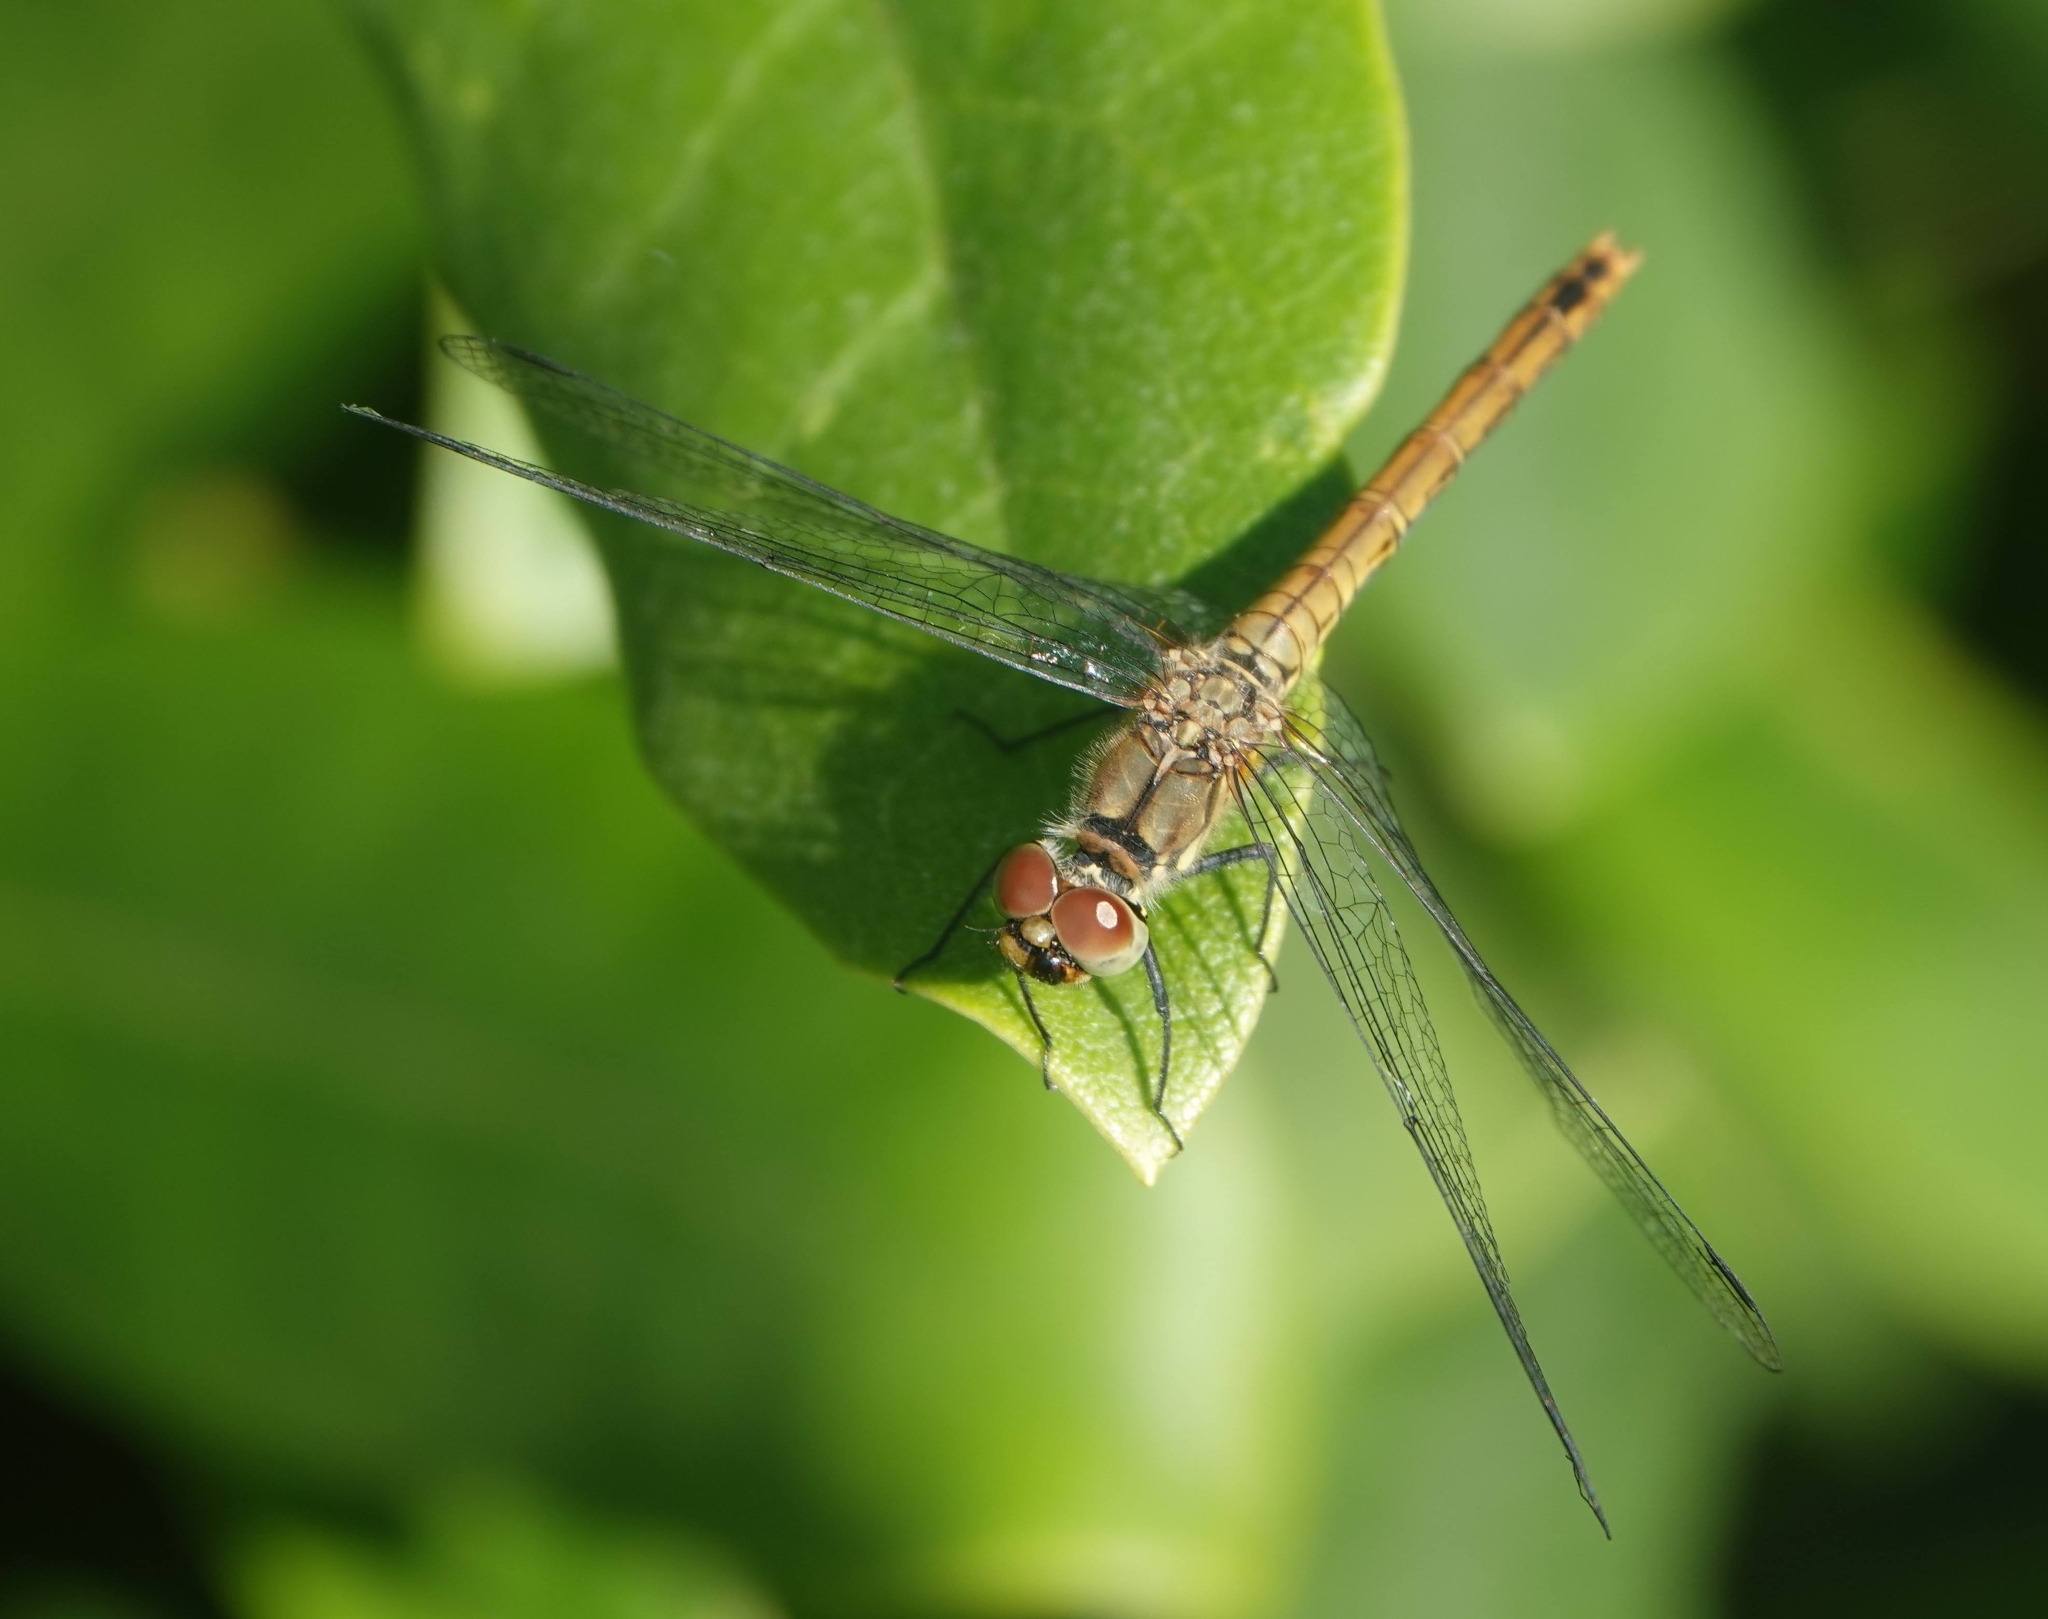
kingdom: Animalia
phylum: Arthropoda
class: Insecta
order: Odonata
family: Libellulidae
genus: Sympetrum
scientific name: Sympetrum sanguineum
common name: Ruddy darter
